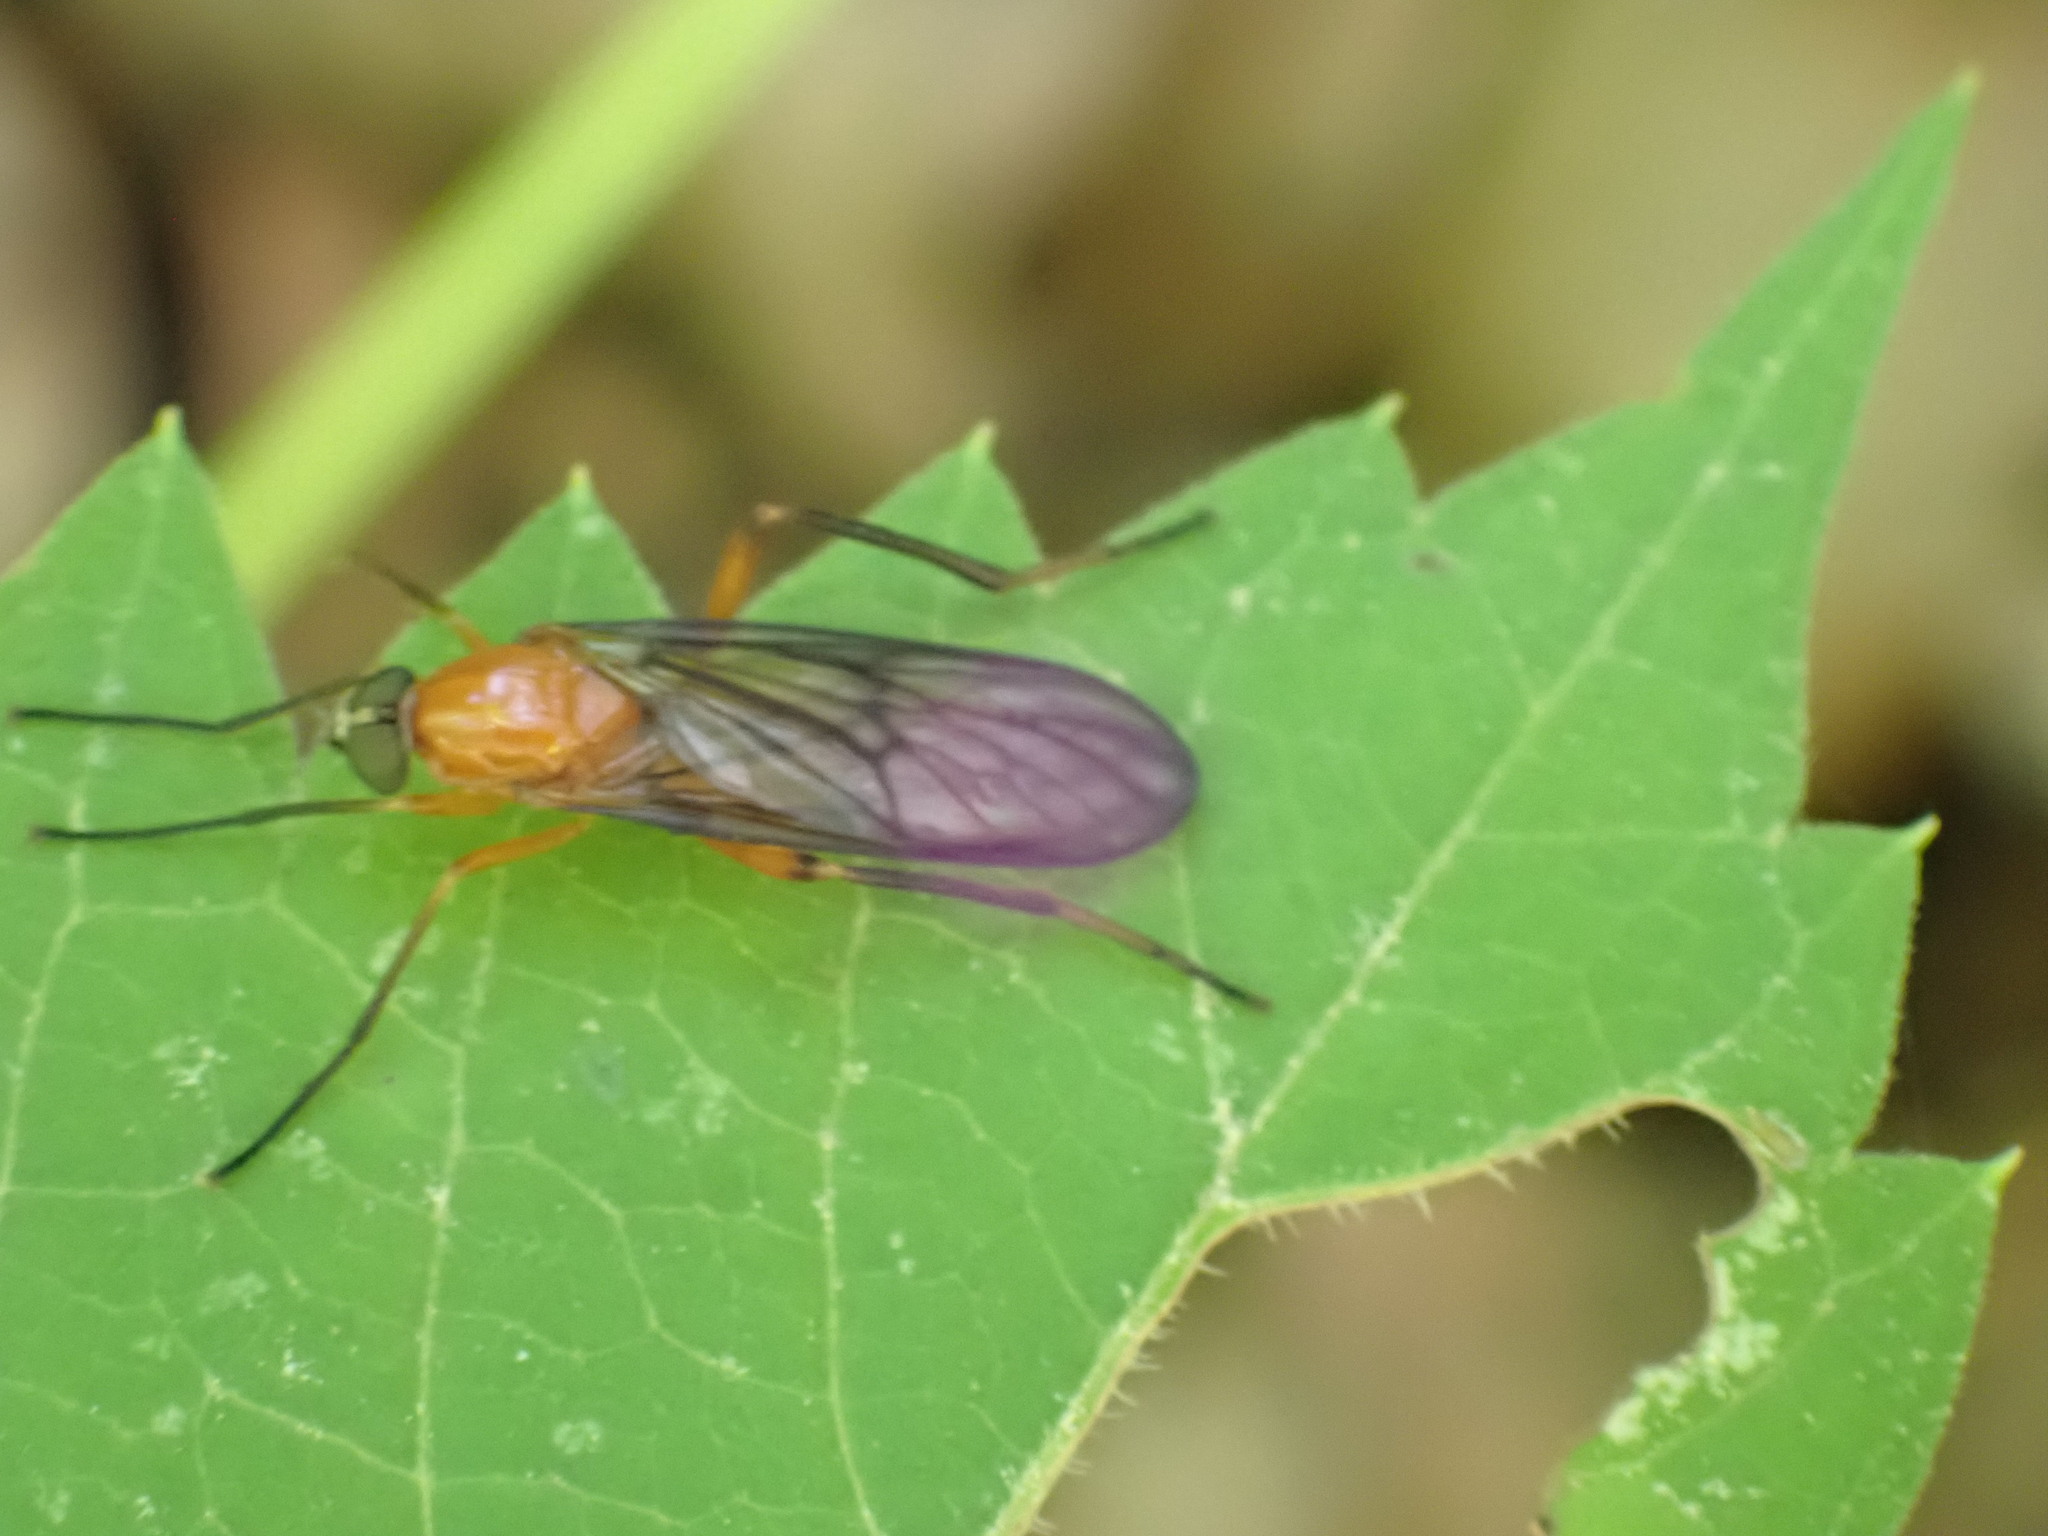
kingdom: Animalia
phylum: Arthropoda
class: Insecta
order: Diptera
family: Xylophagidae
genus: Dialysis
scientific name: Dialysis rufithorax
